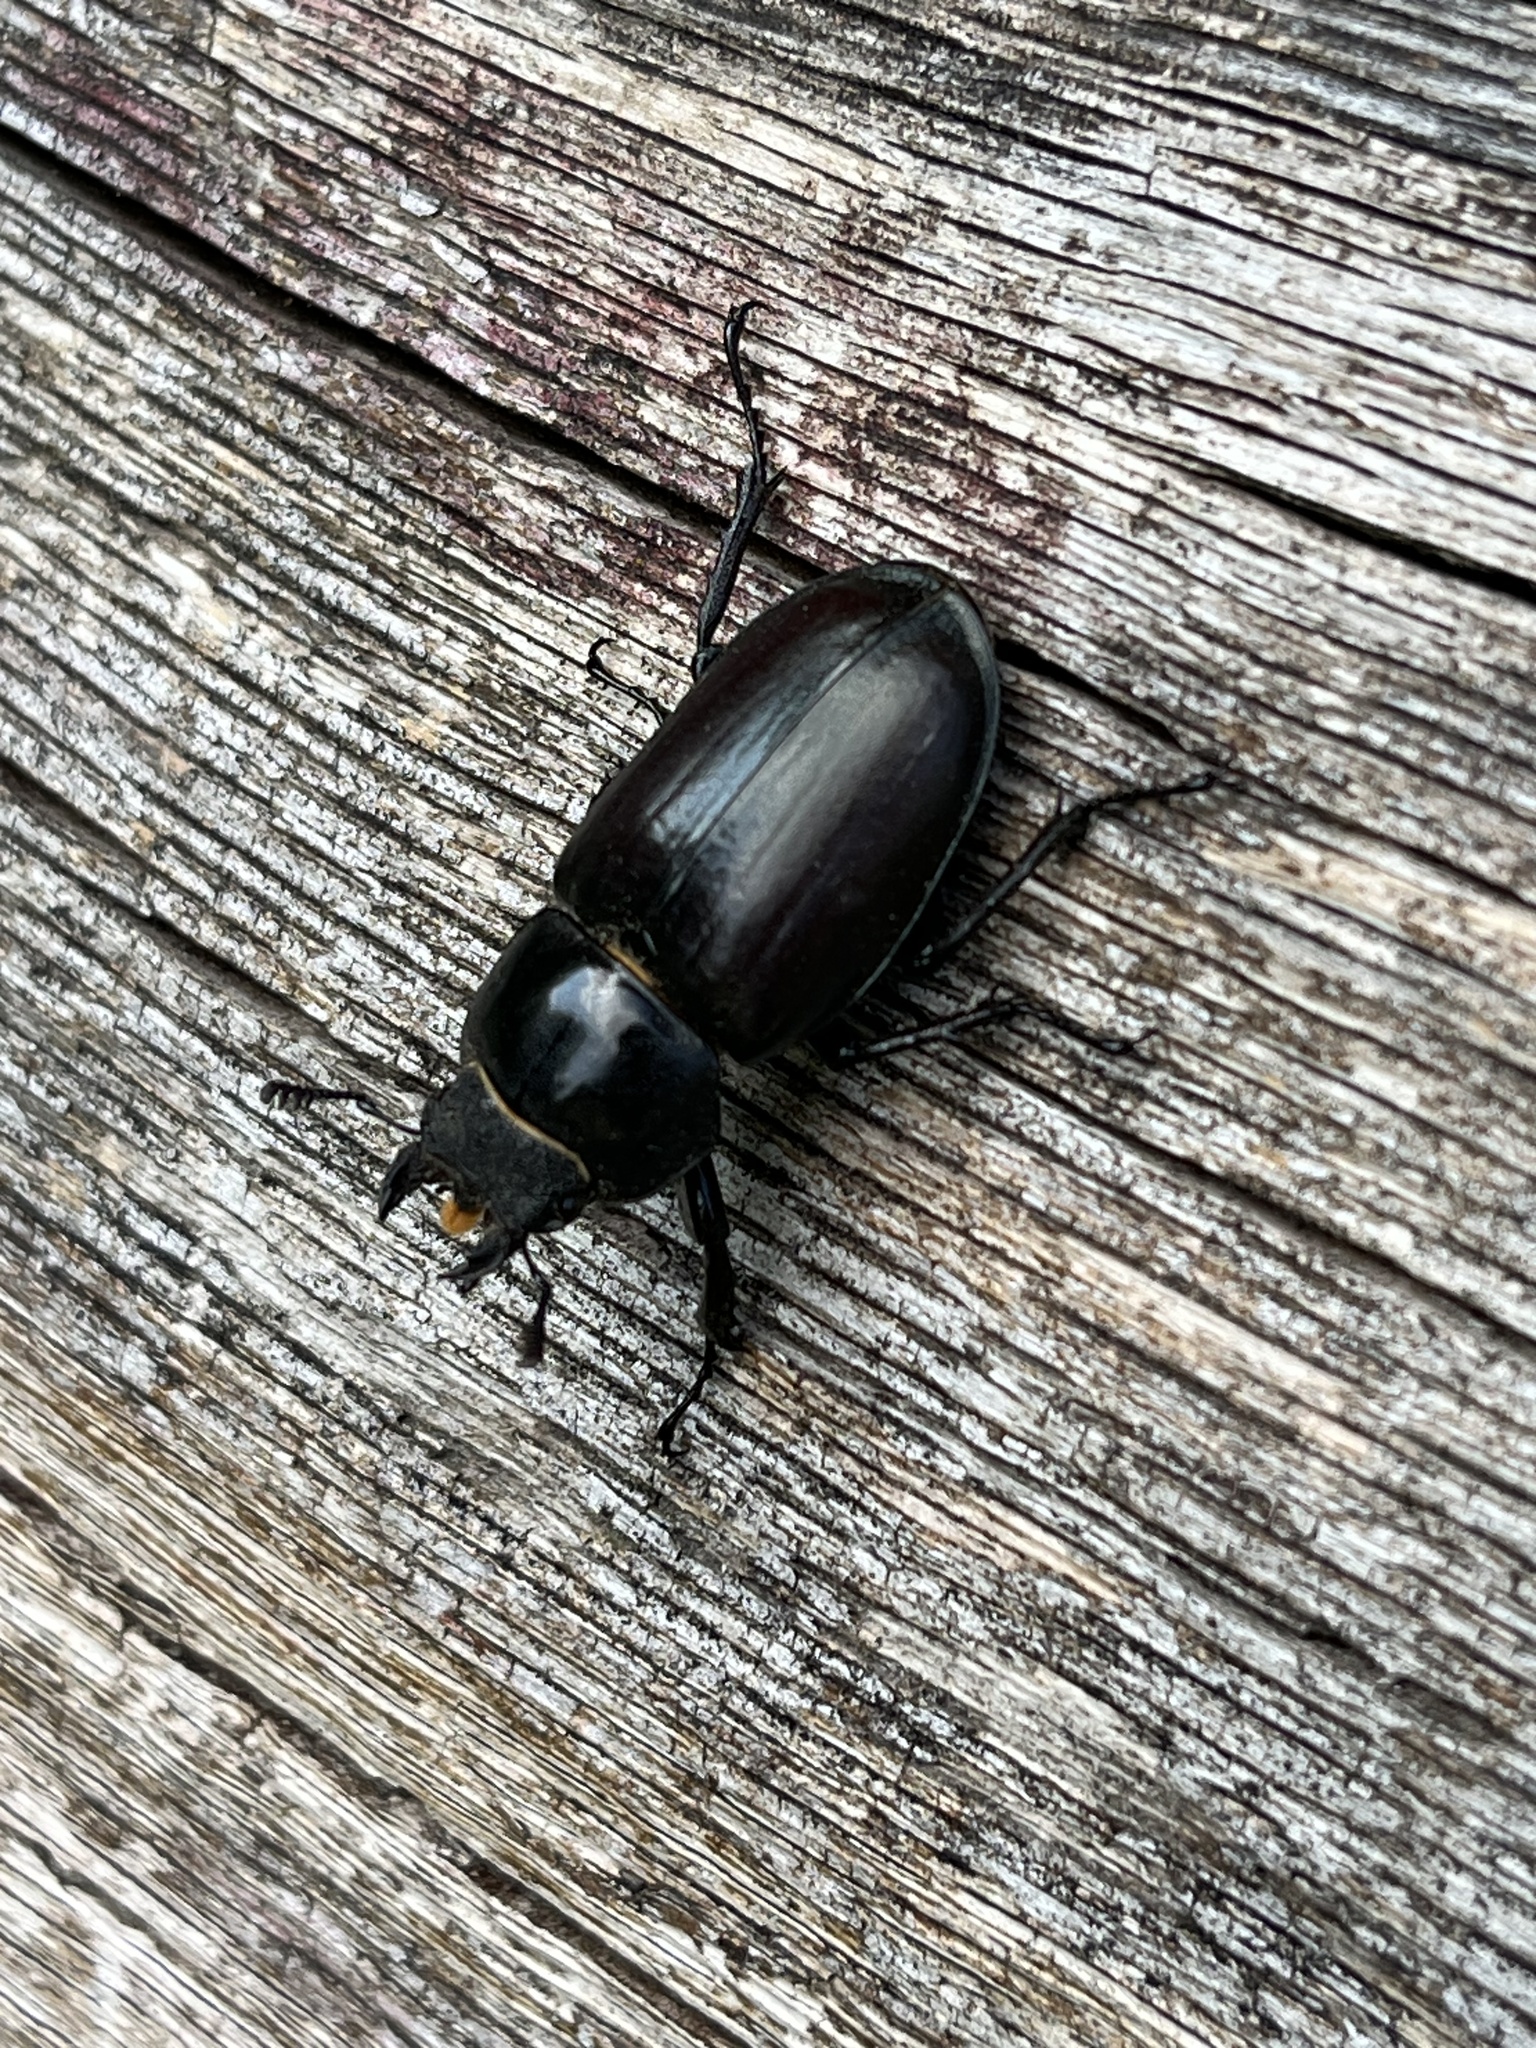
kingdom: Animalia
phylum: Arthropoda
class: Insecta
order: Coleoptera
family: Lucanidae
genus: Lucanus
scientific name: Lucanus cervus
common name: Stag beetle
